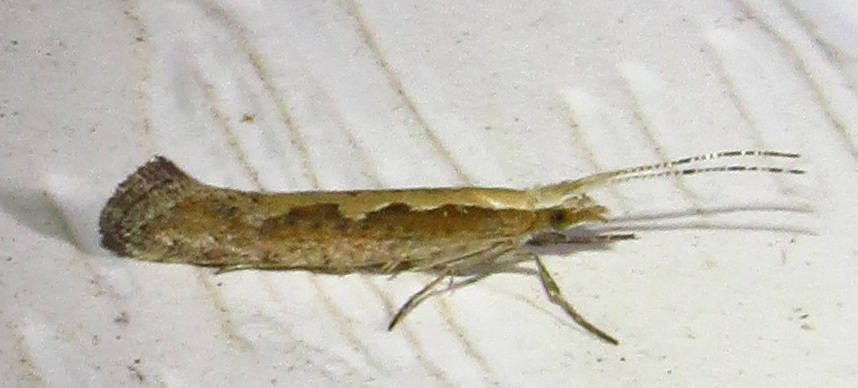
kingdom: Animalia
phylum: Arthropoda
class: Insecta
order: Lepidoptera
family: Plutellidae
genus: Plutella
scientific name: Plutella xylostella
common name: Diamond-back moth
